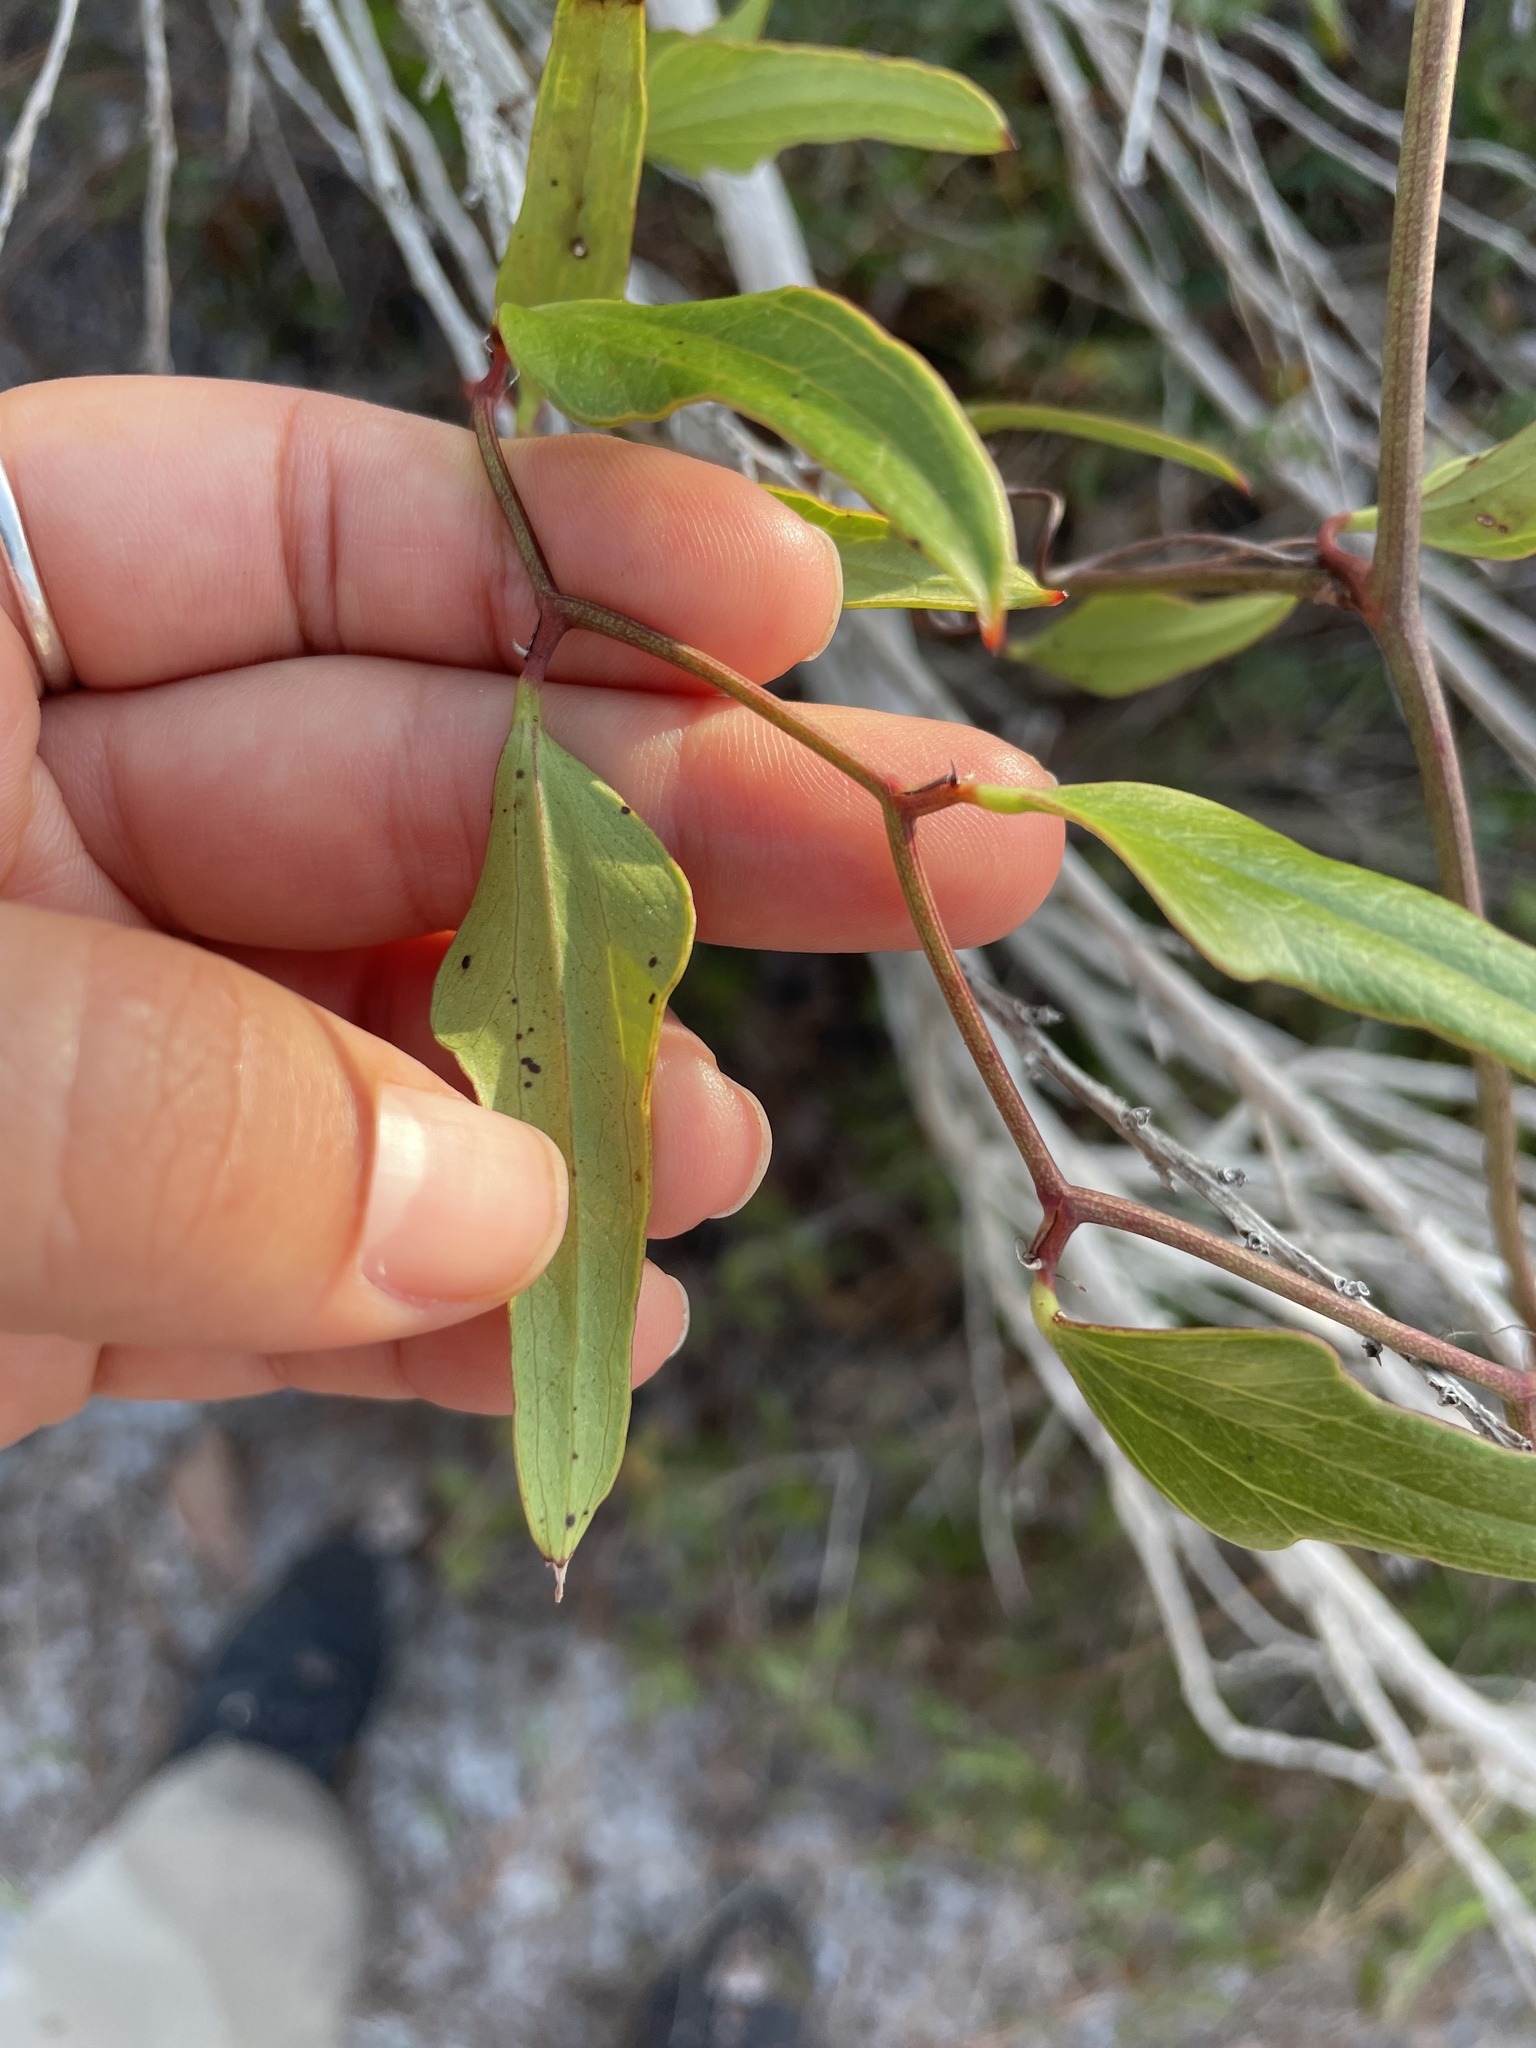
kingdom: Plantae
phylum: Tracheophyta
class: Liliopsida
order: Liliales
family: Smilacaceae
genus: Smilax
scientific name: Smilax auriculata
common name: Wild bamboo
